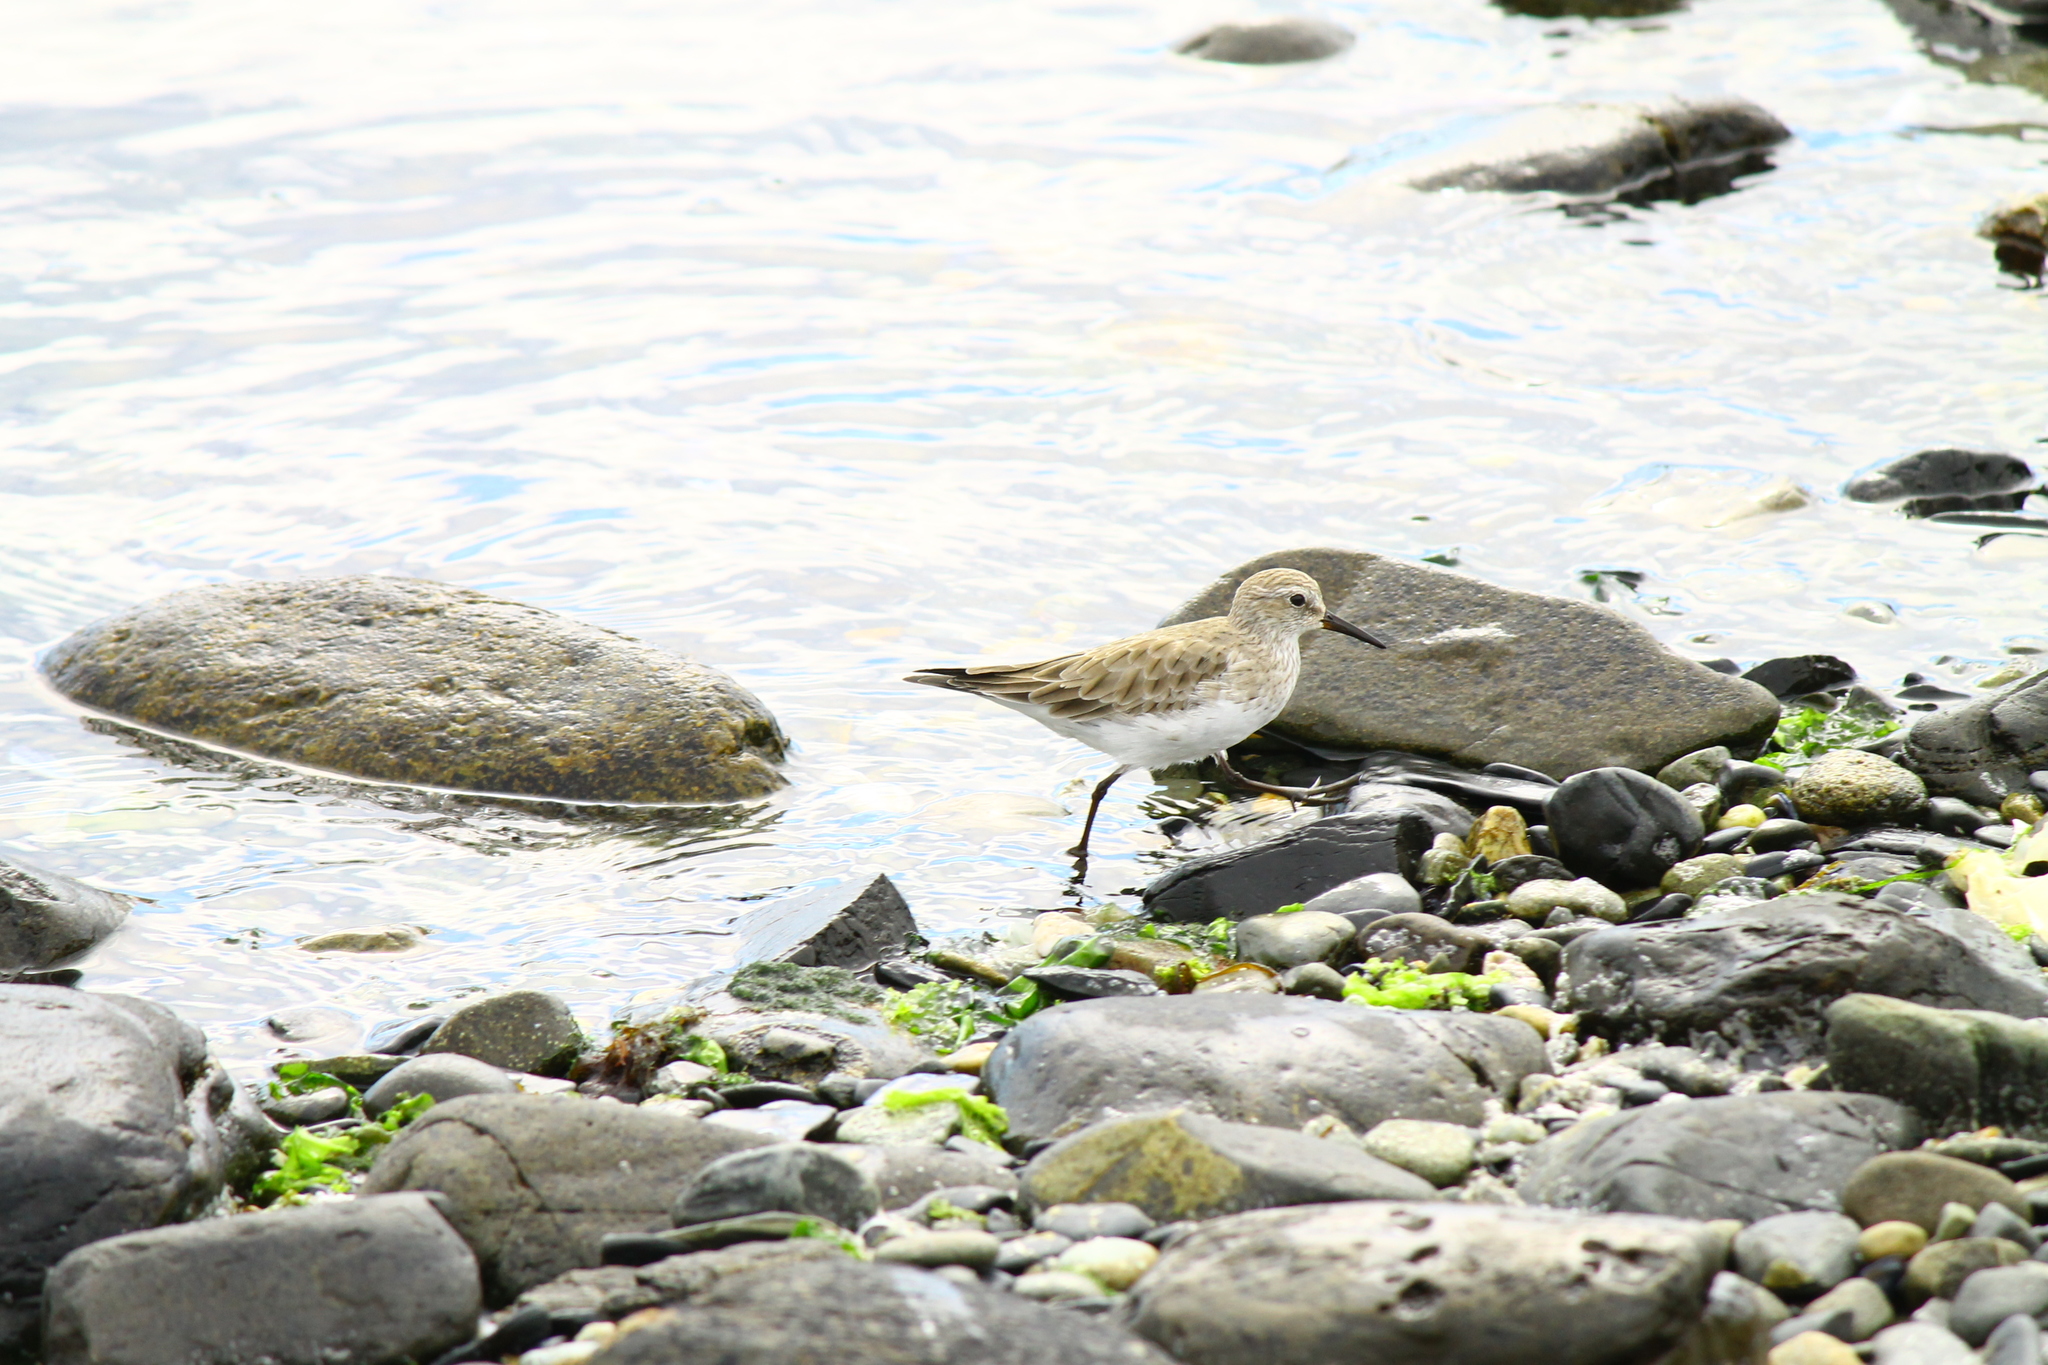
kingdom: Animalia
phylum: Chordata
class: Aves
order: Charadriiformes
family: Scolopacidae
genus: Calidris
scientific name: Calidris bairdii
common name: Baird's sandpiper
